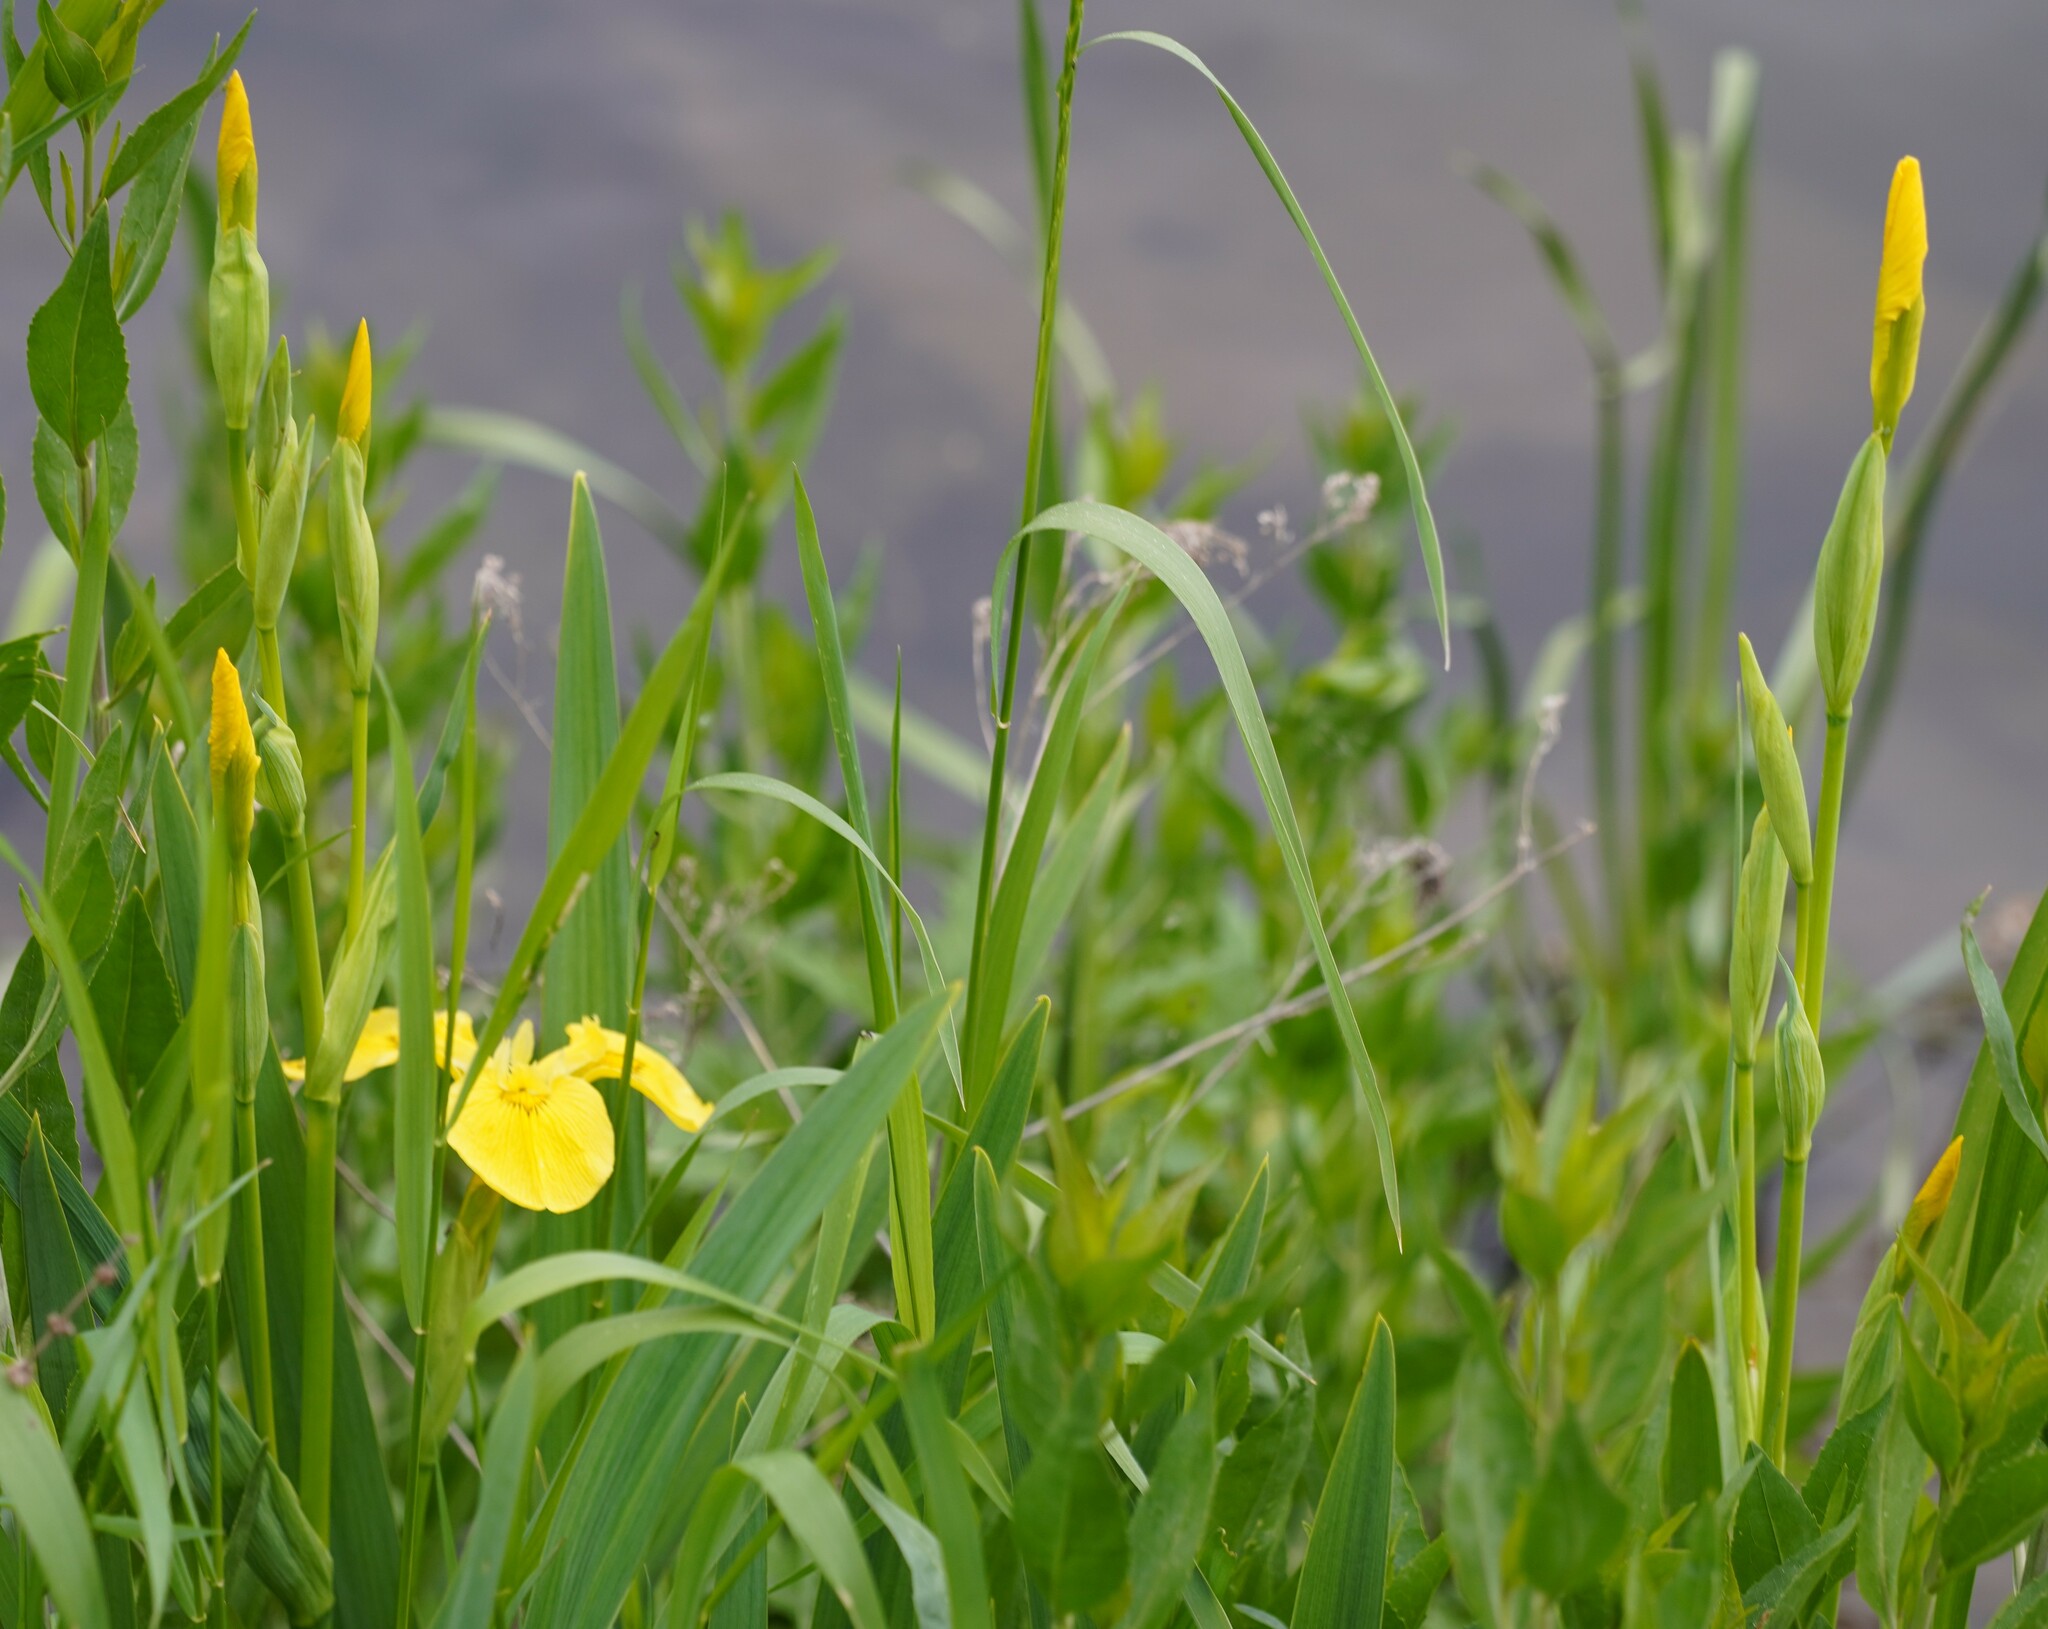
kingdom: Plantae
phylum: Tracheophyta
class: Liliopsida
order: Asparagales
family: Iridaceae
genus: Iris
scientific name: Iris pseudacorus
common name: Yellow flag
